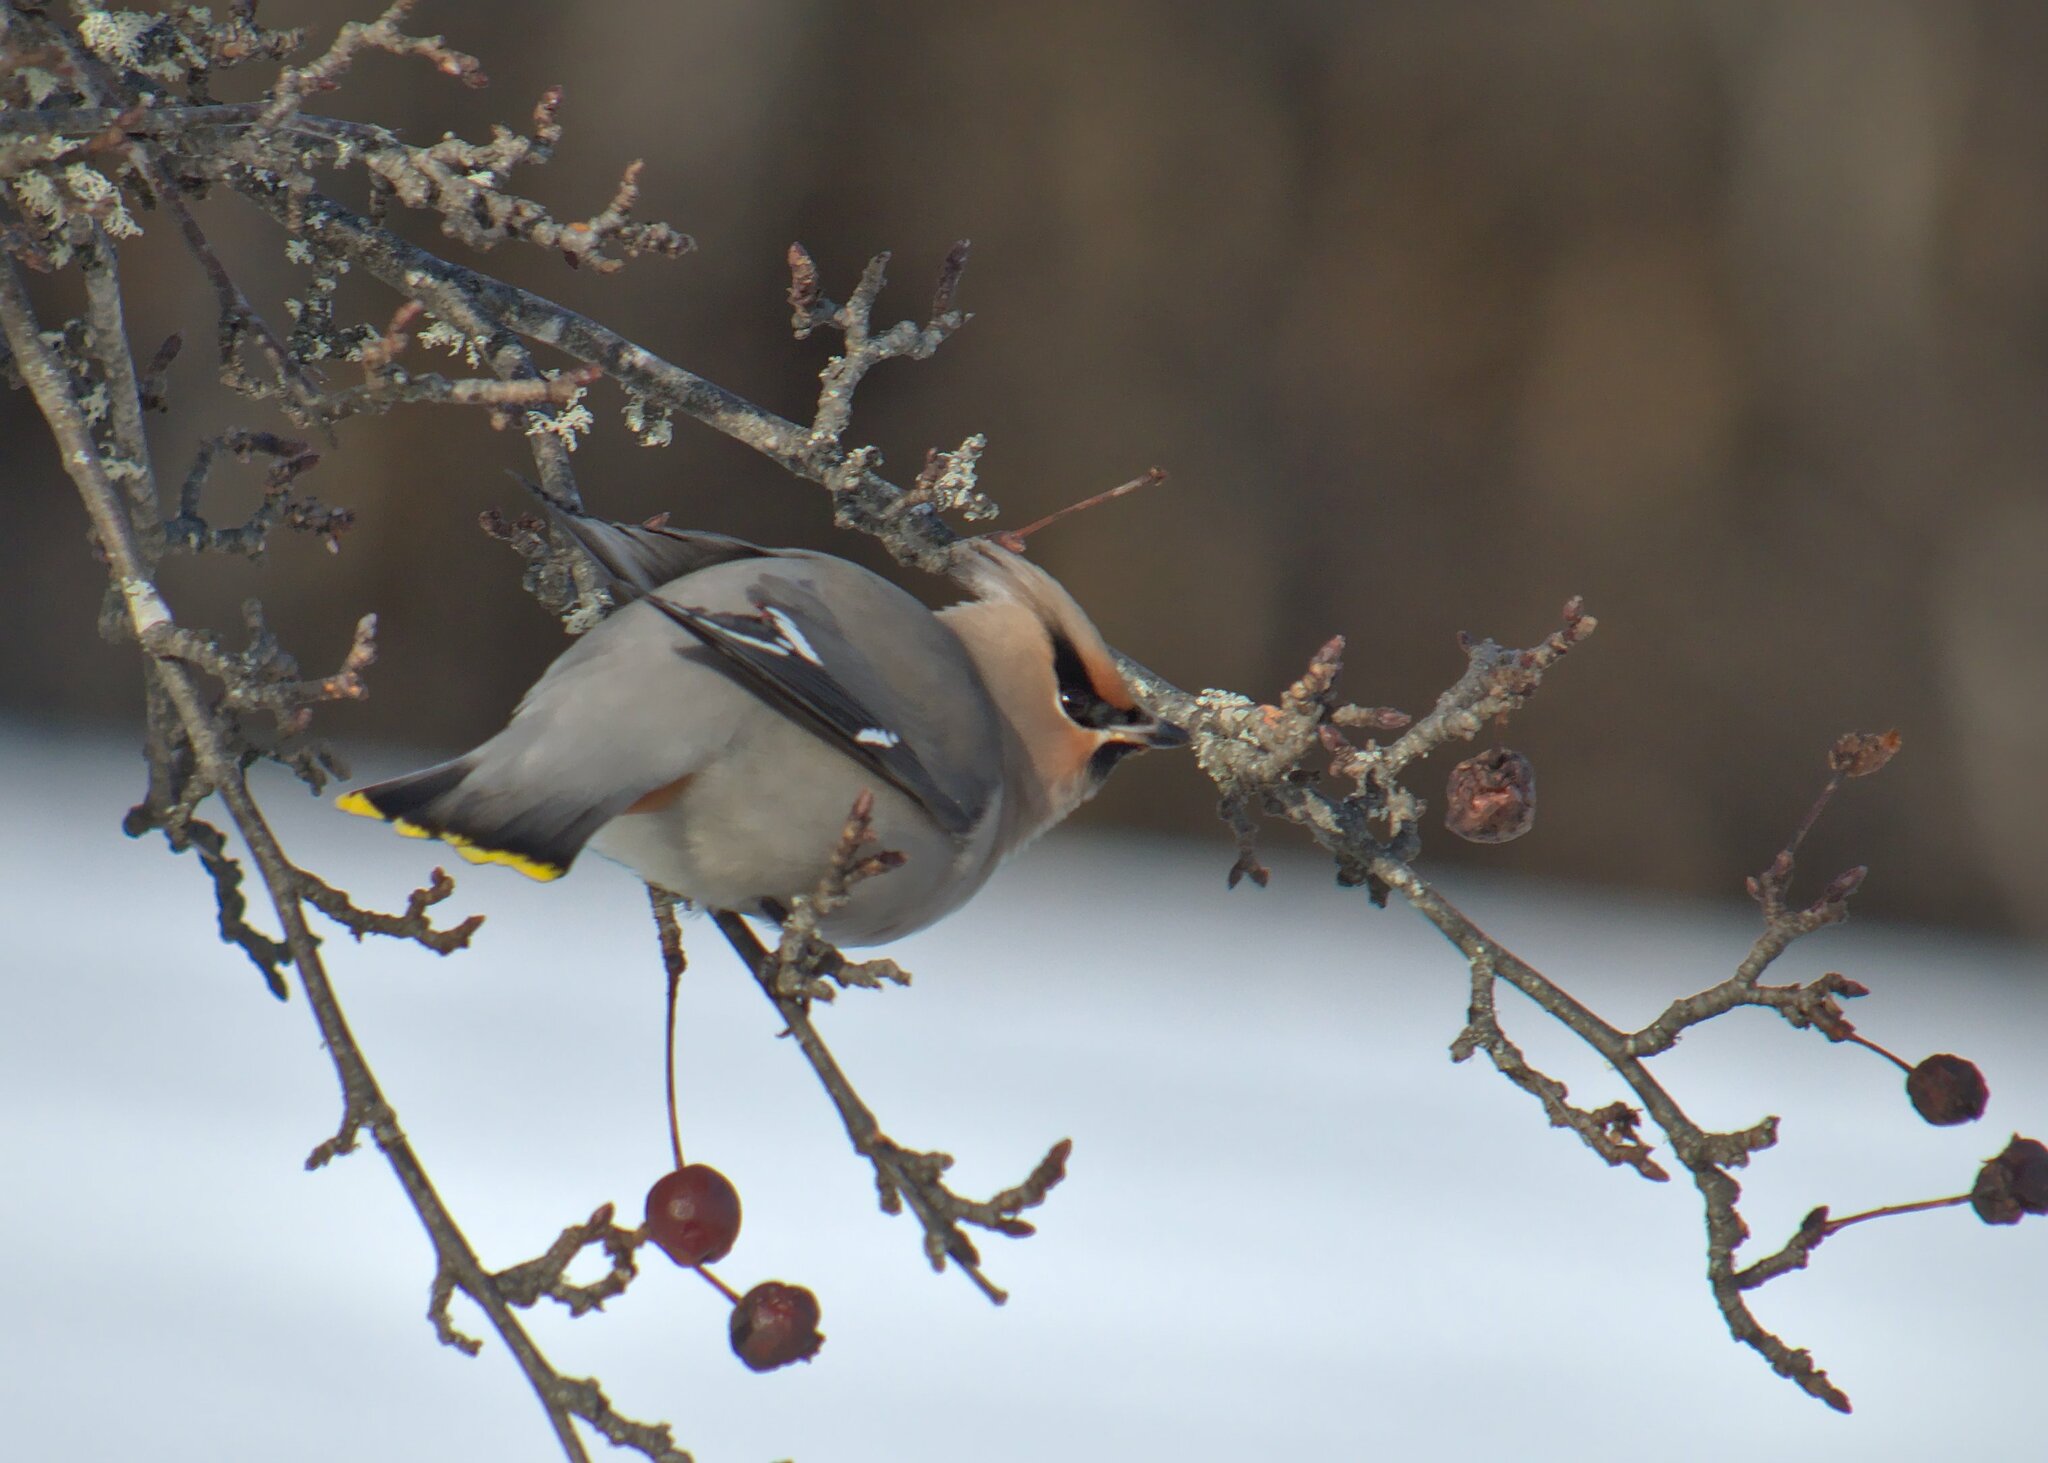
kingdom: Animalia
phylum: Chordata
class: Aves
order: Passeriformes
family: Bombycillidae
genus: Bombycilla
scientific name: Bombycilla garrulus
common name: Bohemian waxwing
